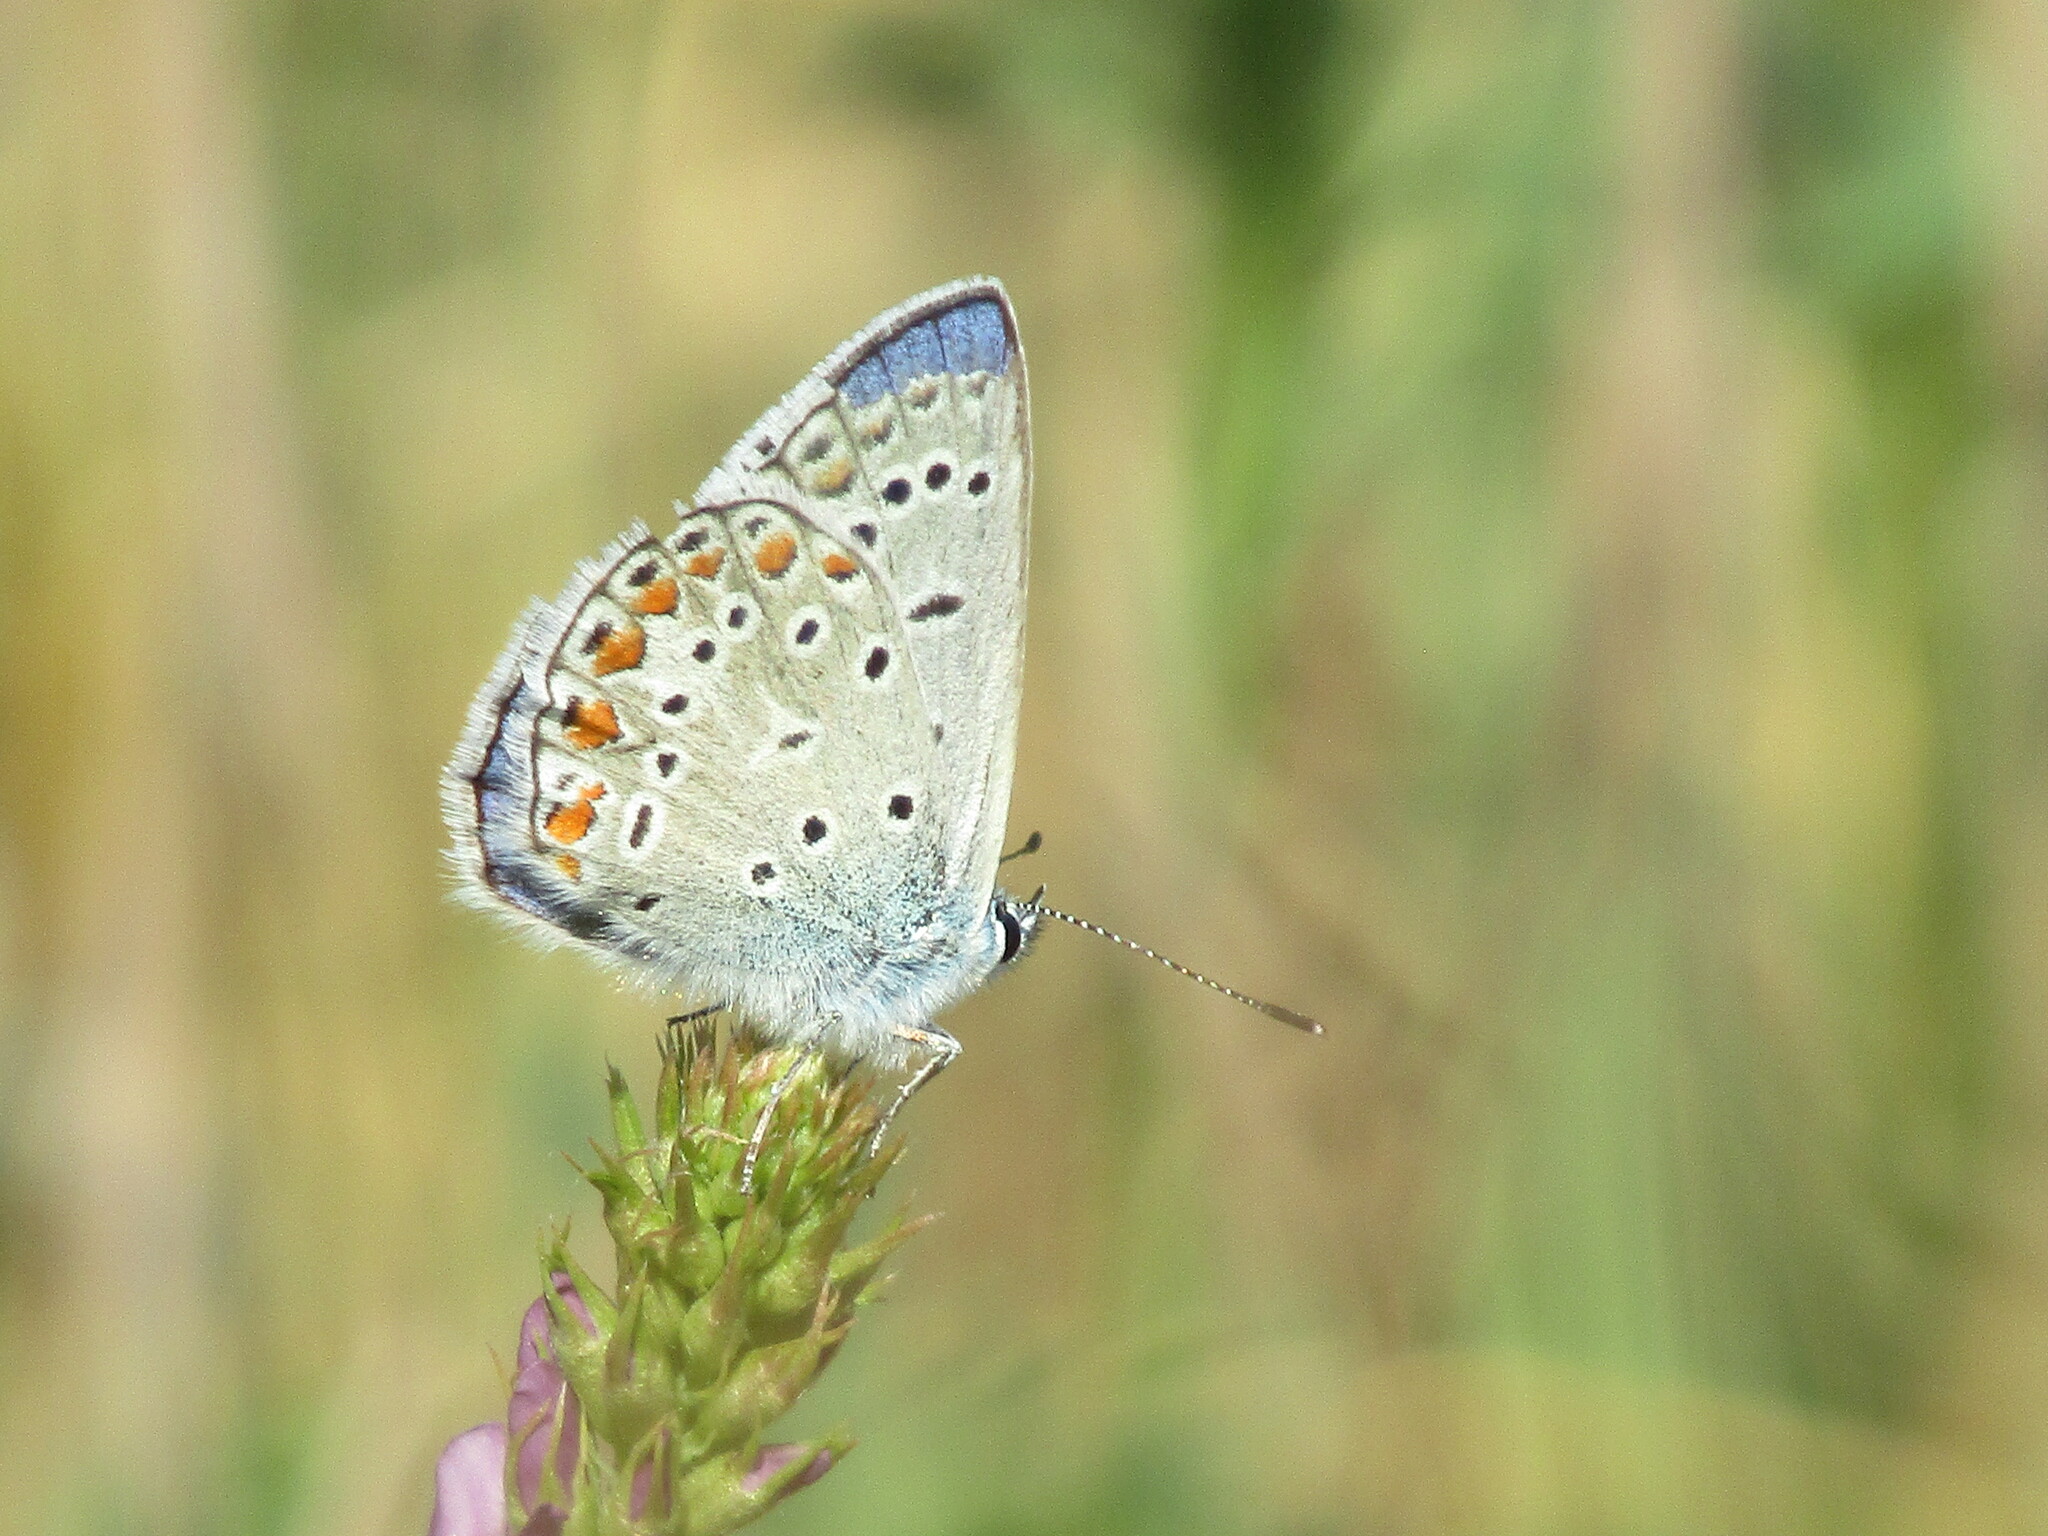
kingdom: Animalia
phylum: Arthropoda
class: Insecta
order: Lepidoptera
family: Lycaenidae
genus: Polyommatus
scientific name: Polyommatus icarus
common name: Common blue
